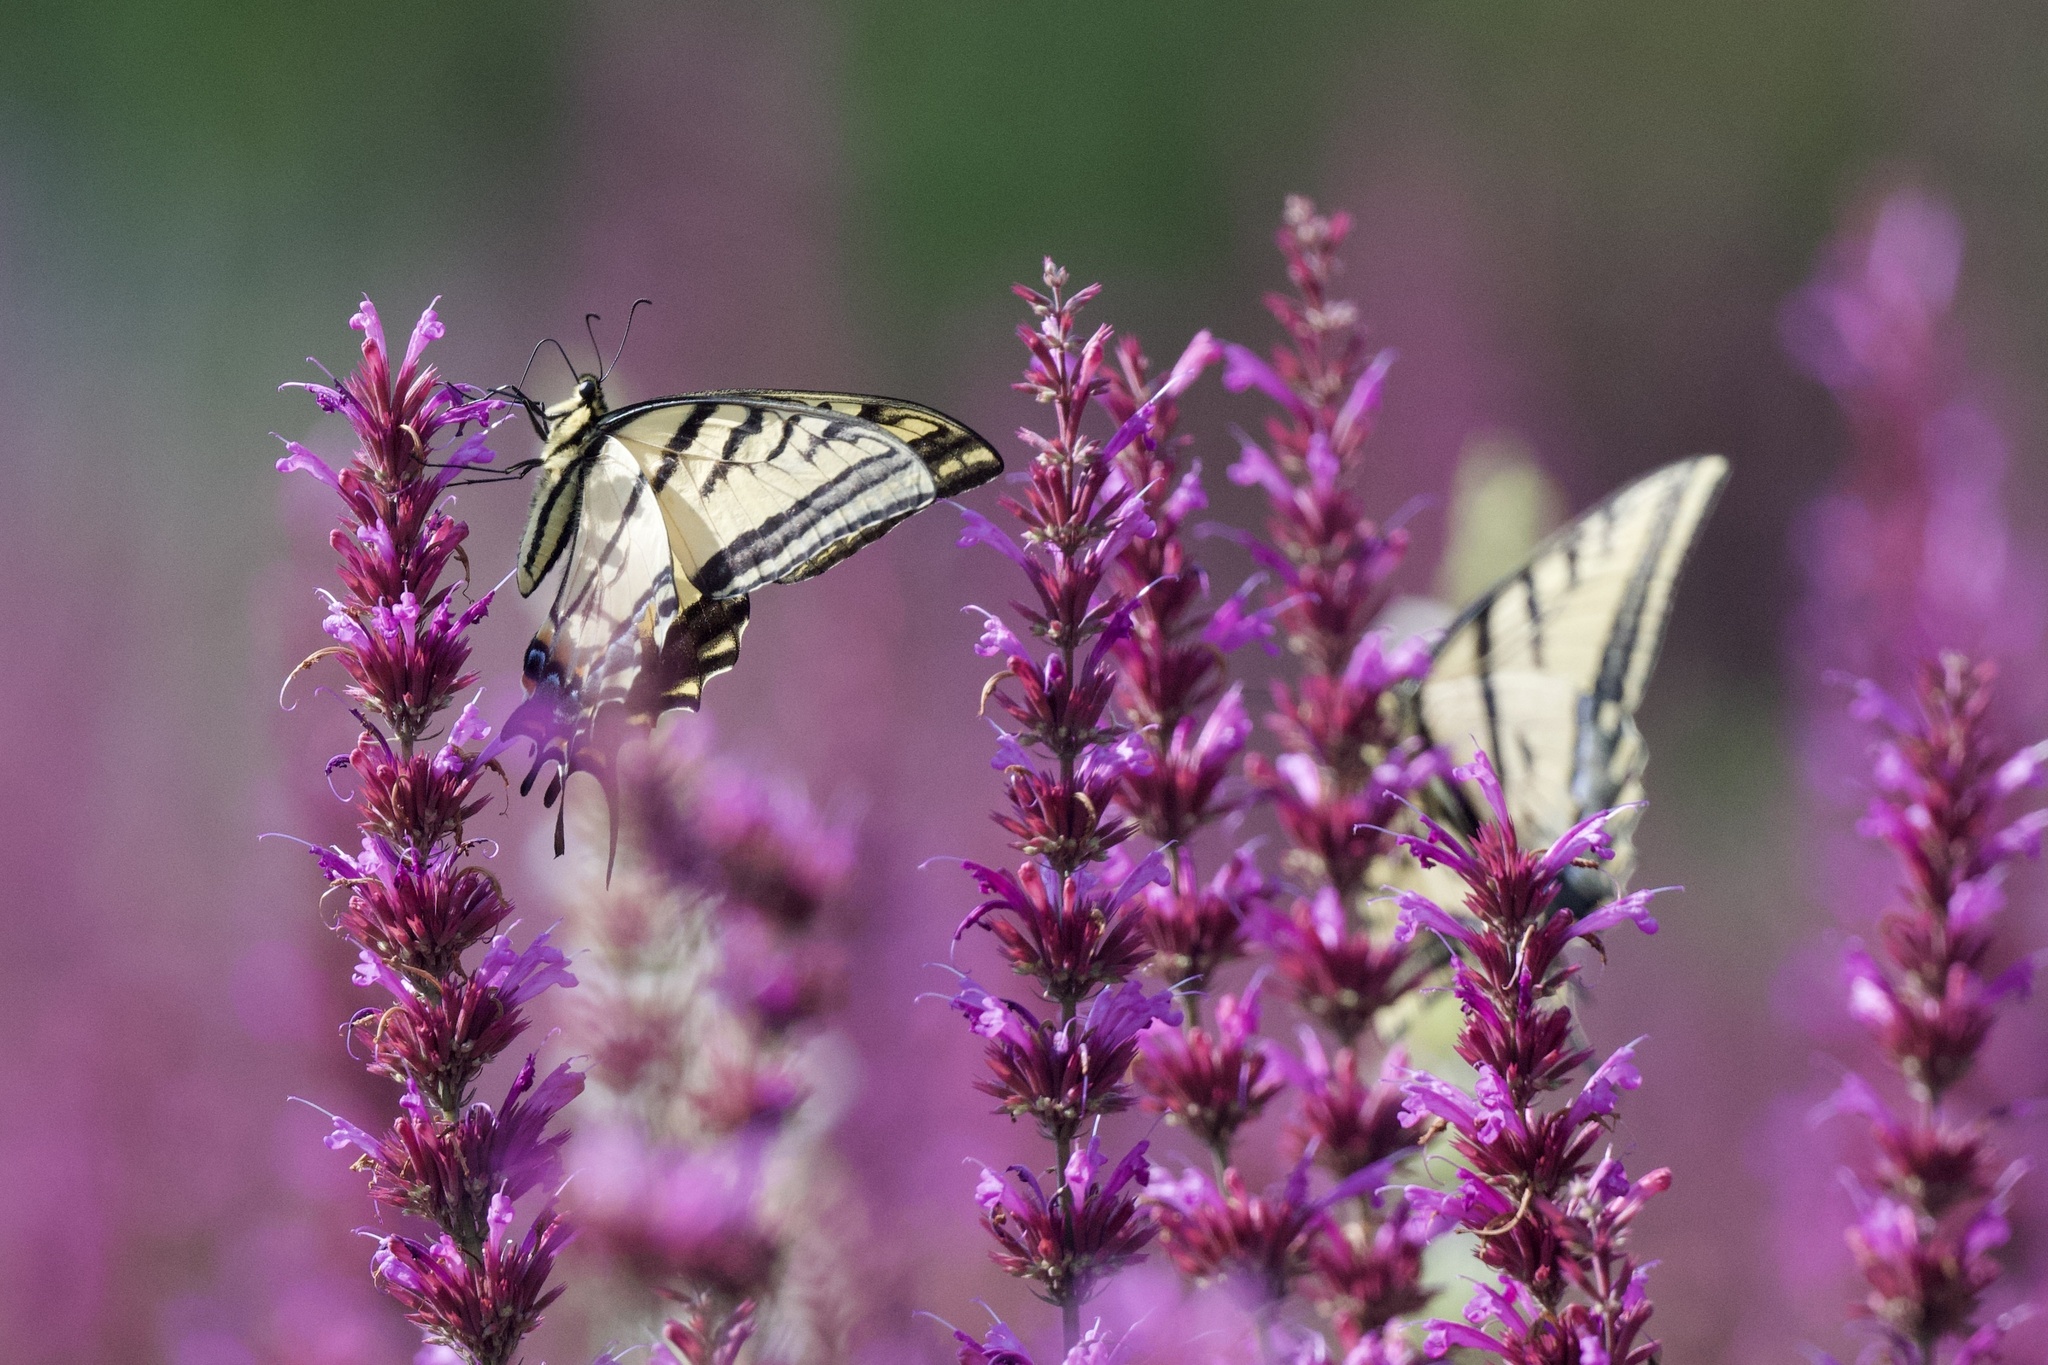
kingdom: Animalia
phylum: Arthropoda
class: Insecta
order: Lepidoptera
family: Papilionidae
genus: Papilio
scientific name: Papilio multicaudata
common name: Two-tailed tiger swallowtail
